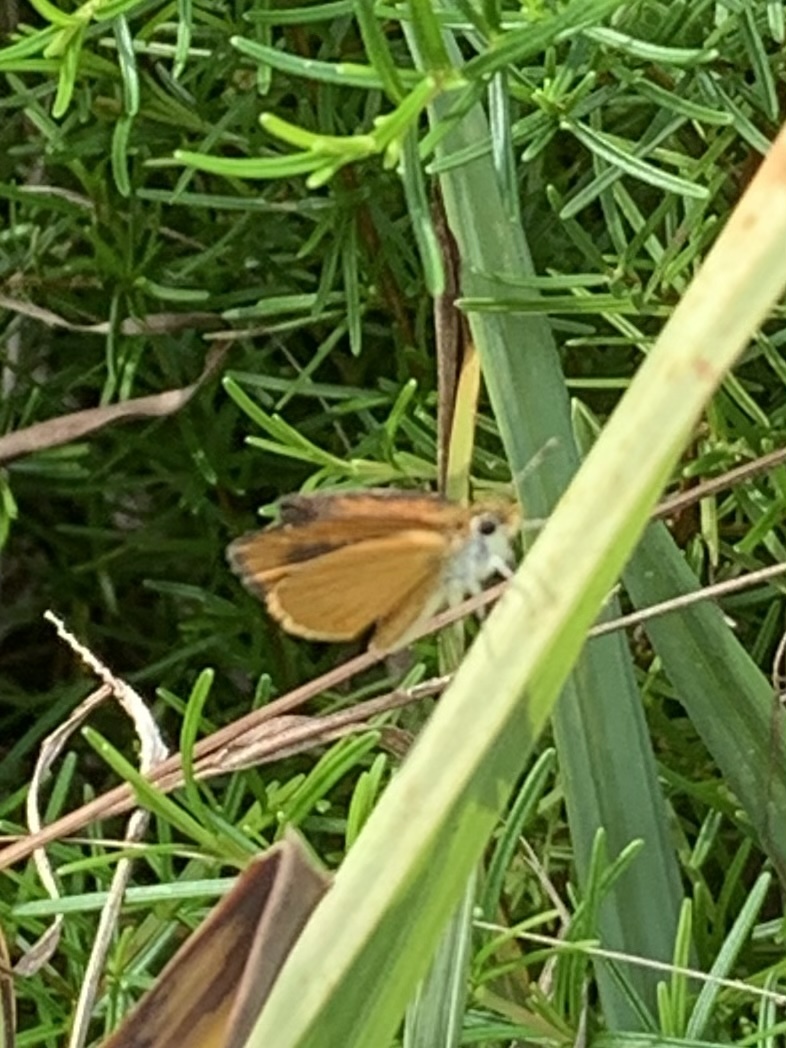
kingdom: Animalia
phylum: Arthropoda
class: Insecta
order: Lepidoptera
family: Hesperiidae
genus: Ancyloxypha
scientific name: Ancyloxypha numitor
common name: Least skipper
